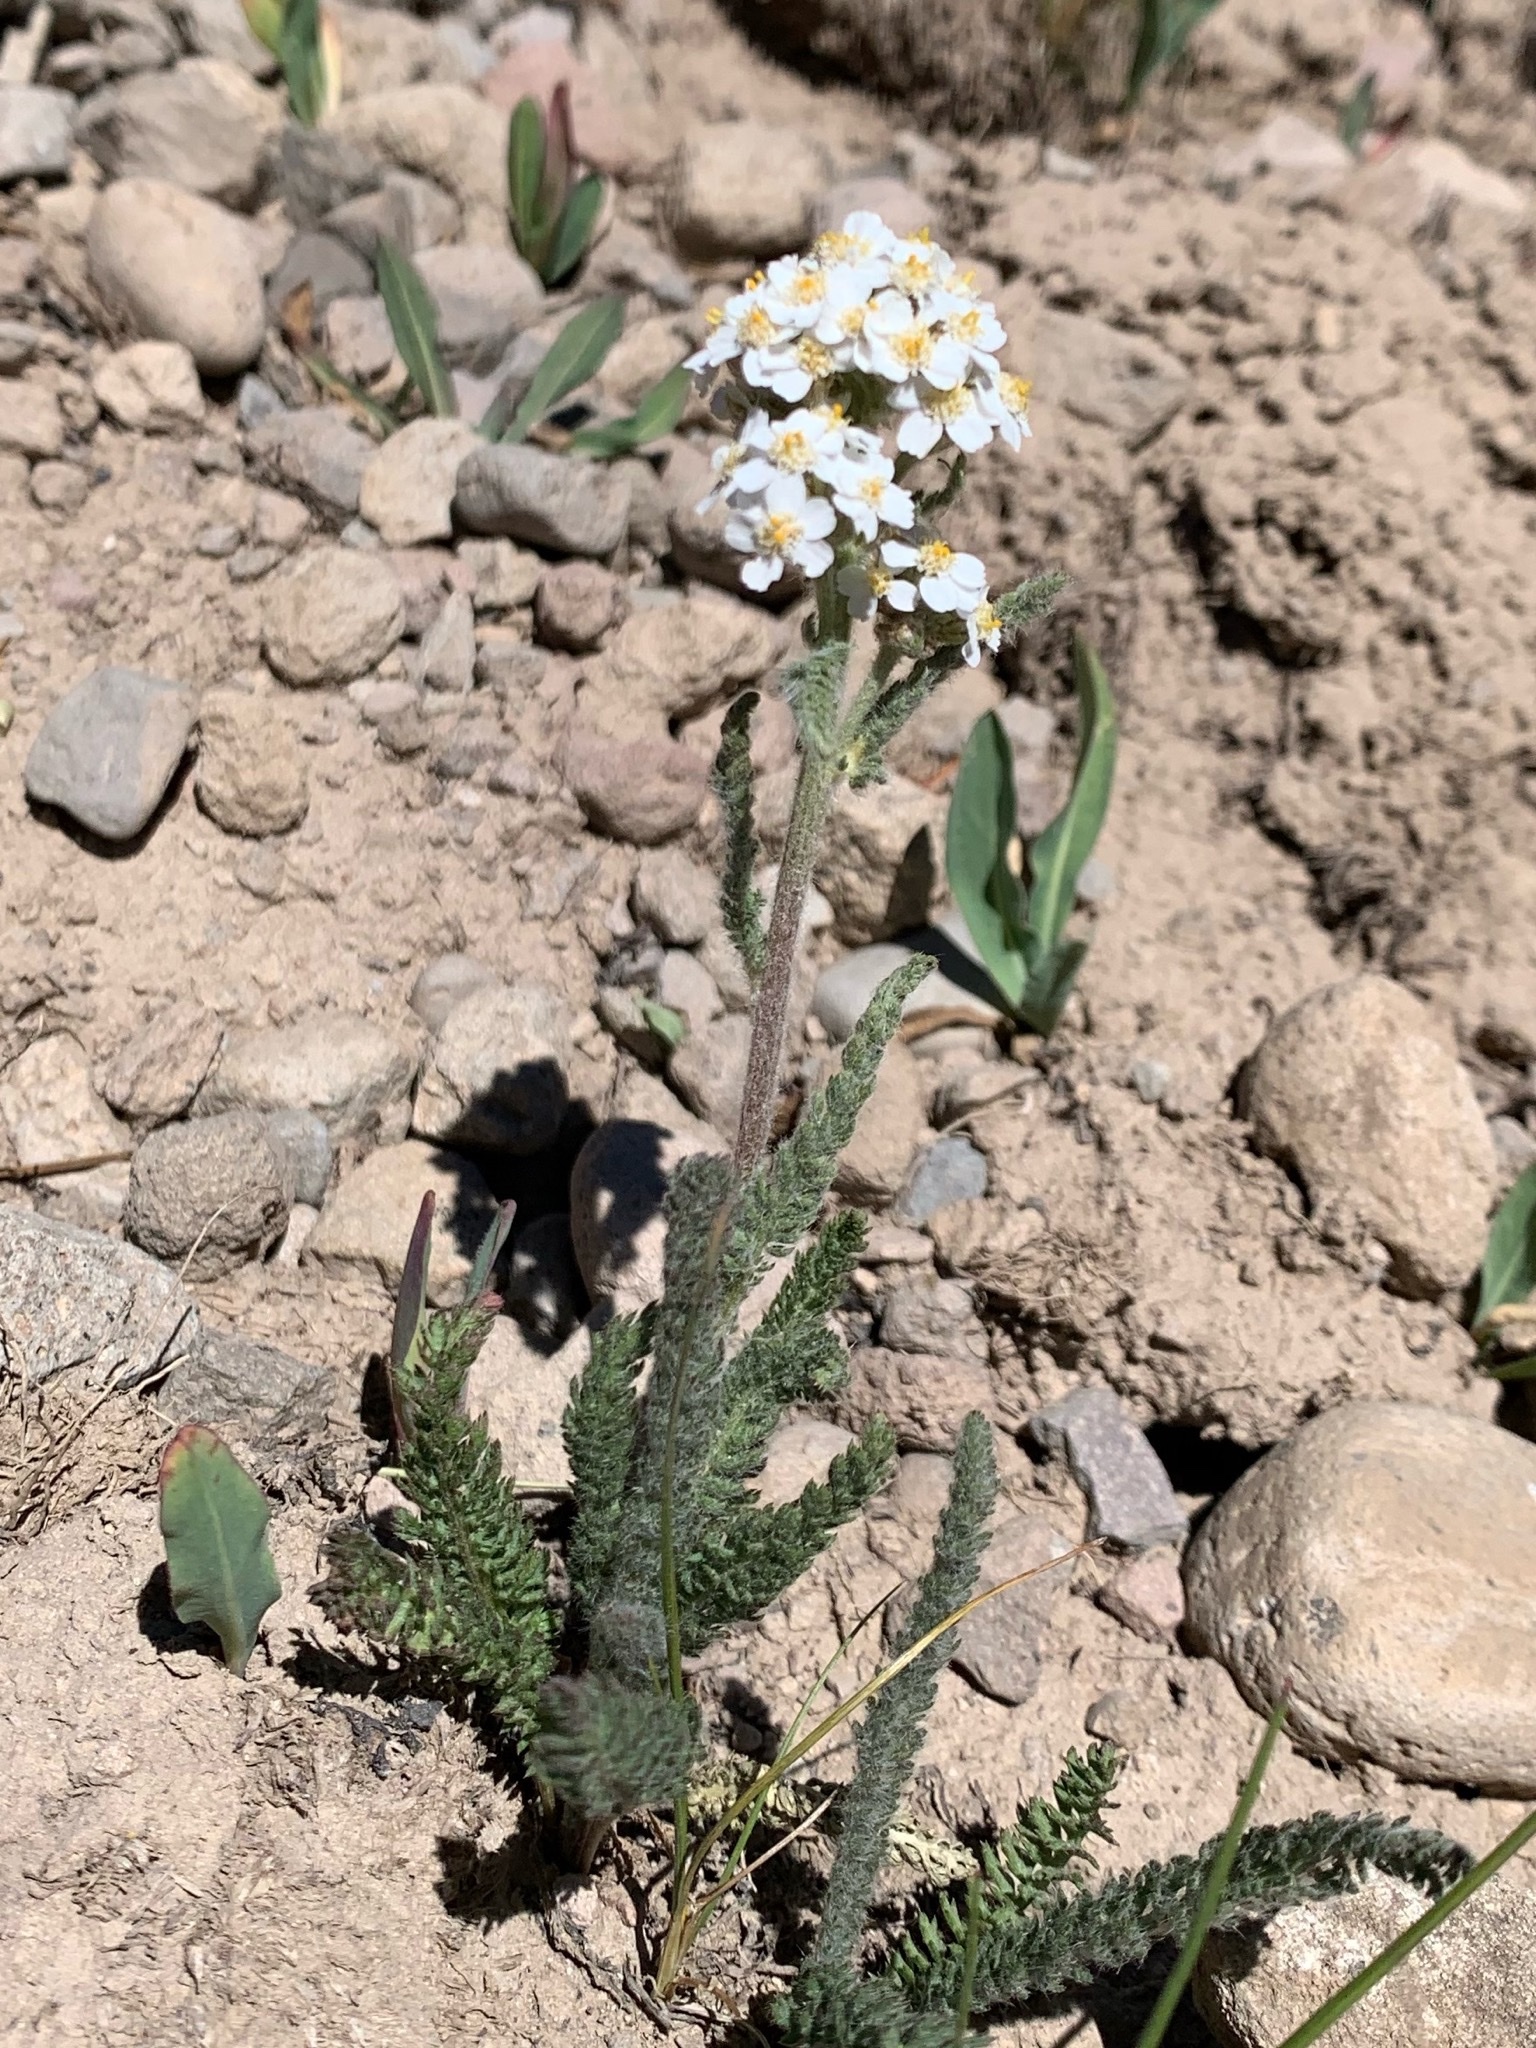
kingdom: Plantae
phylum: Tracheophyta
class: Magnoliopsida
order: Asterales
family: Asteraceae
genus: Achillea
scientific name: Achillea millefolium
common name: Yarrow
